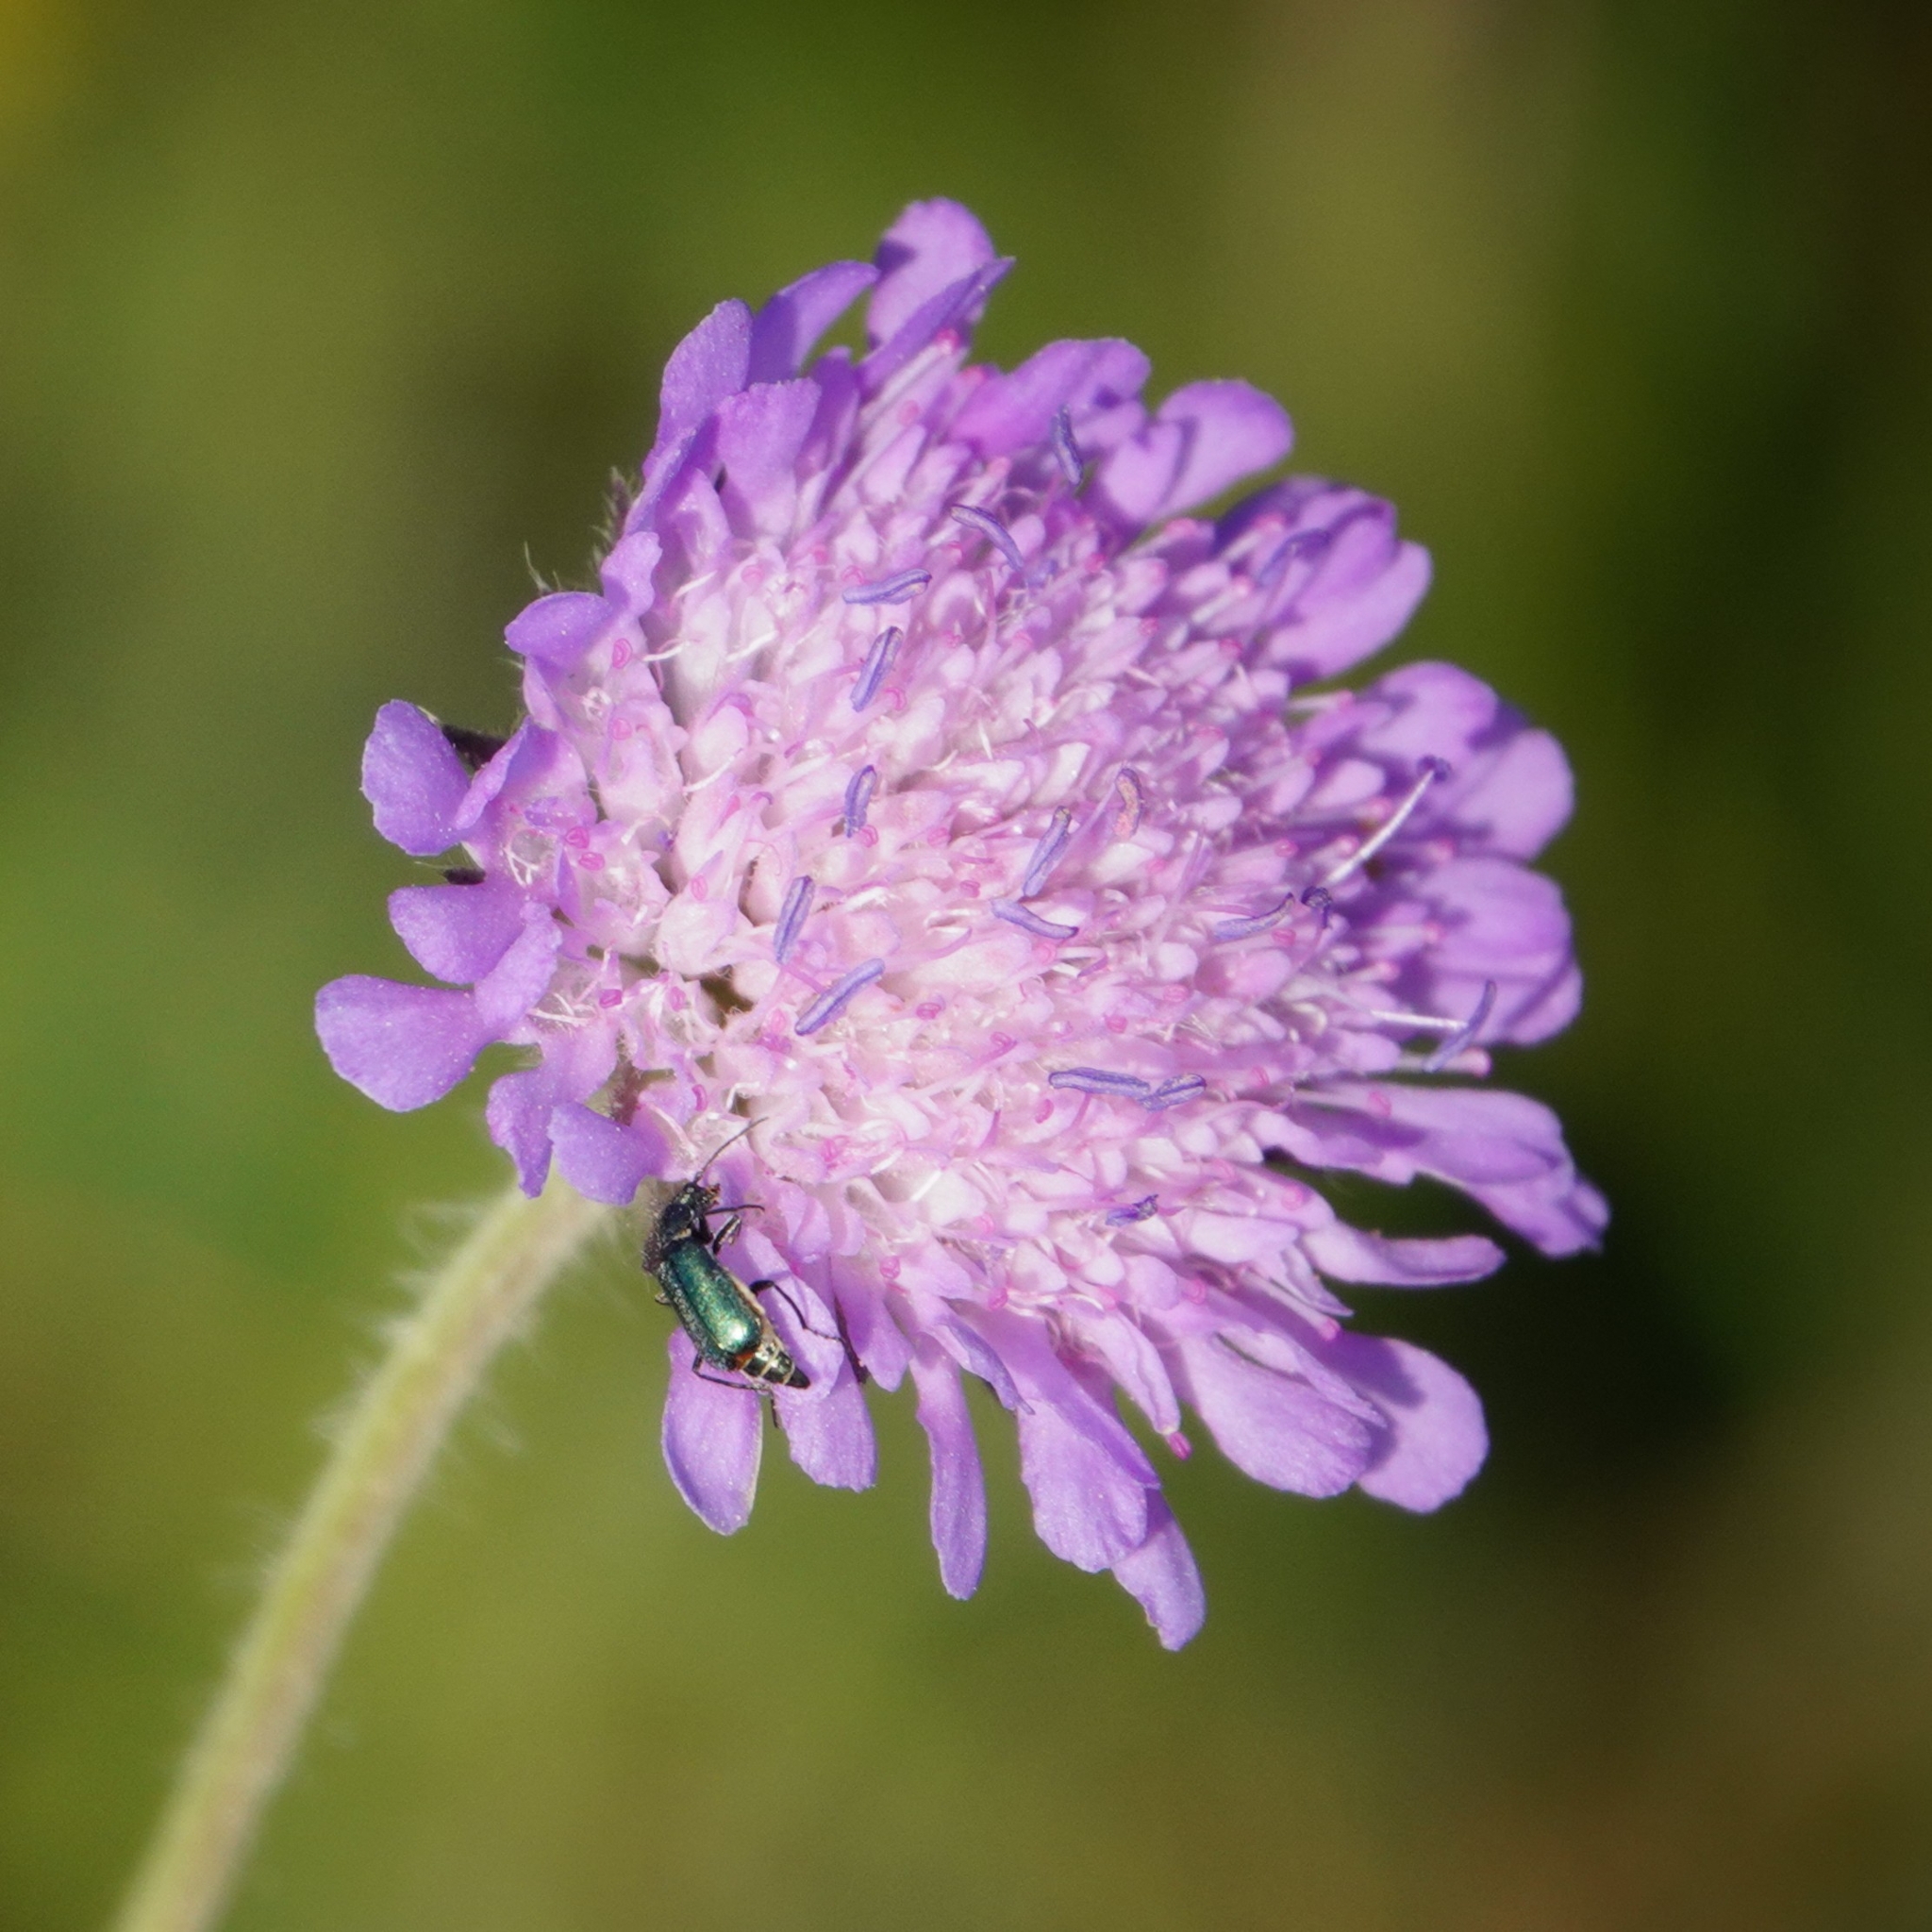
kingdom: Animalia
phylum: Arthropoda
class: Insecta
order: Coleoptera
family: Malachiidae
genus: Cordylepherus
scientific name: Cordylepherus viridis
